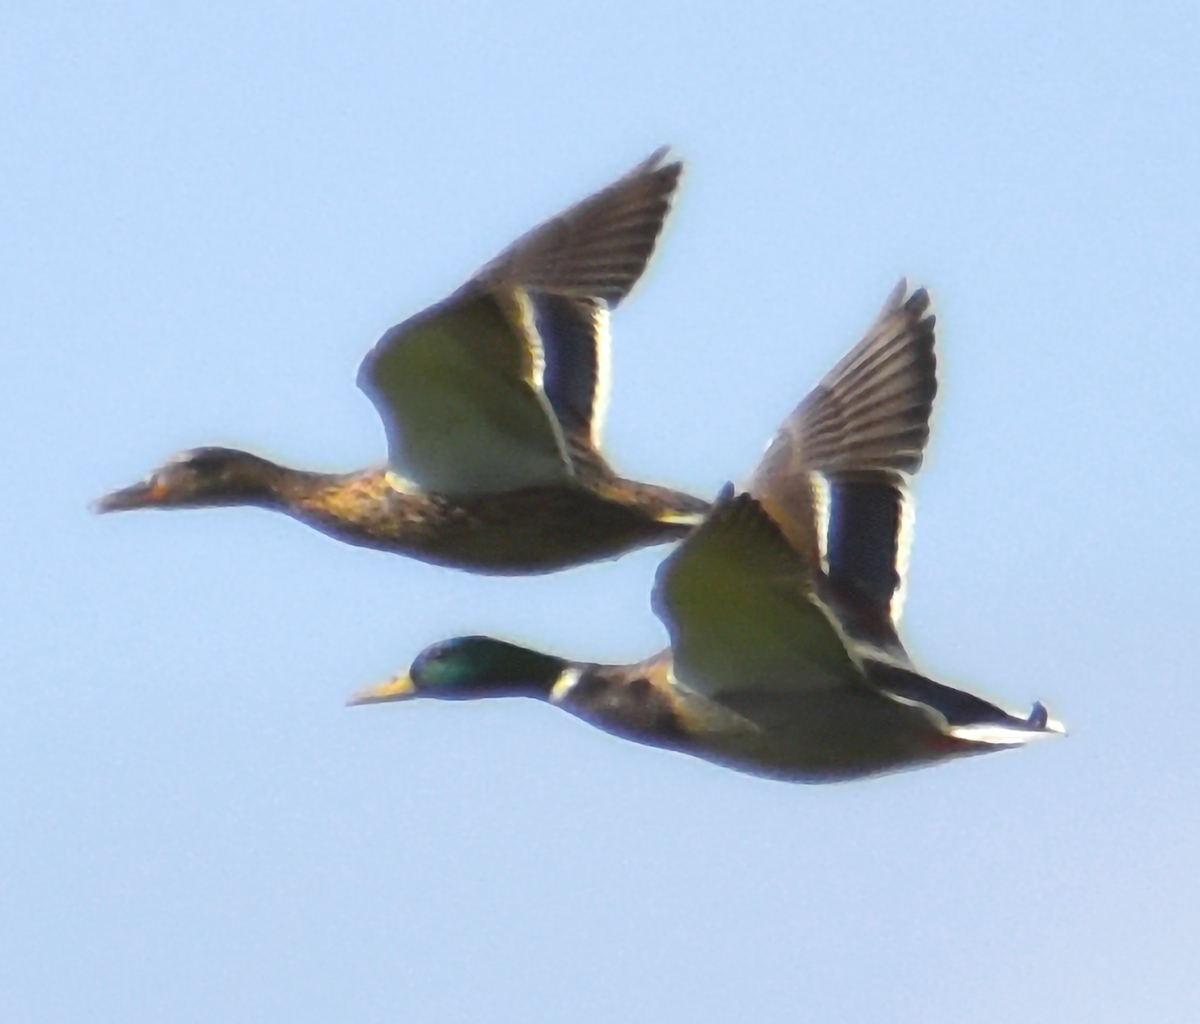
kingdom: Animalia
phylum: Chordata
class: Aves
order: Anseriformes
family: Anatidae
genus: Anas
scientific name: Anas platyrhynchos
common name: Mallard
